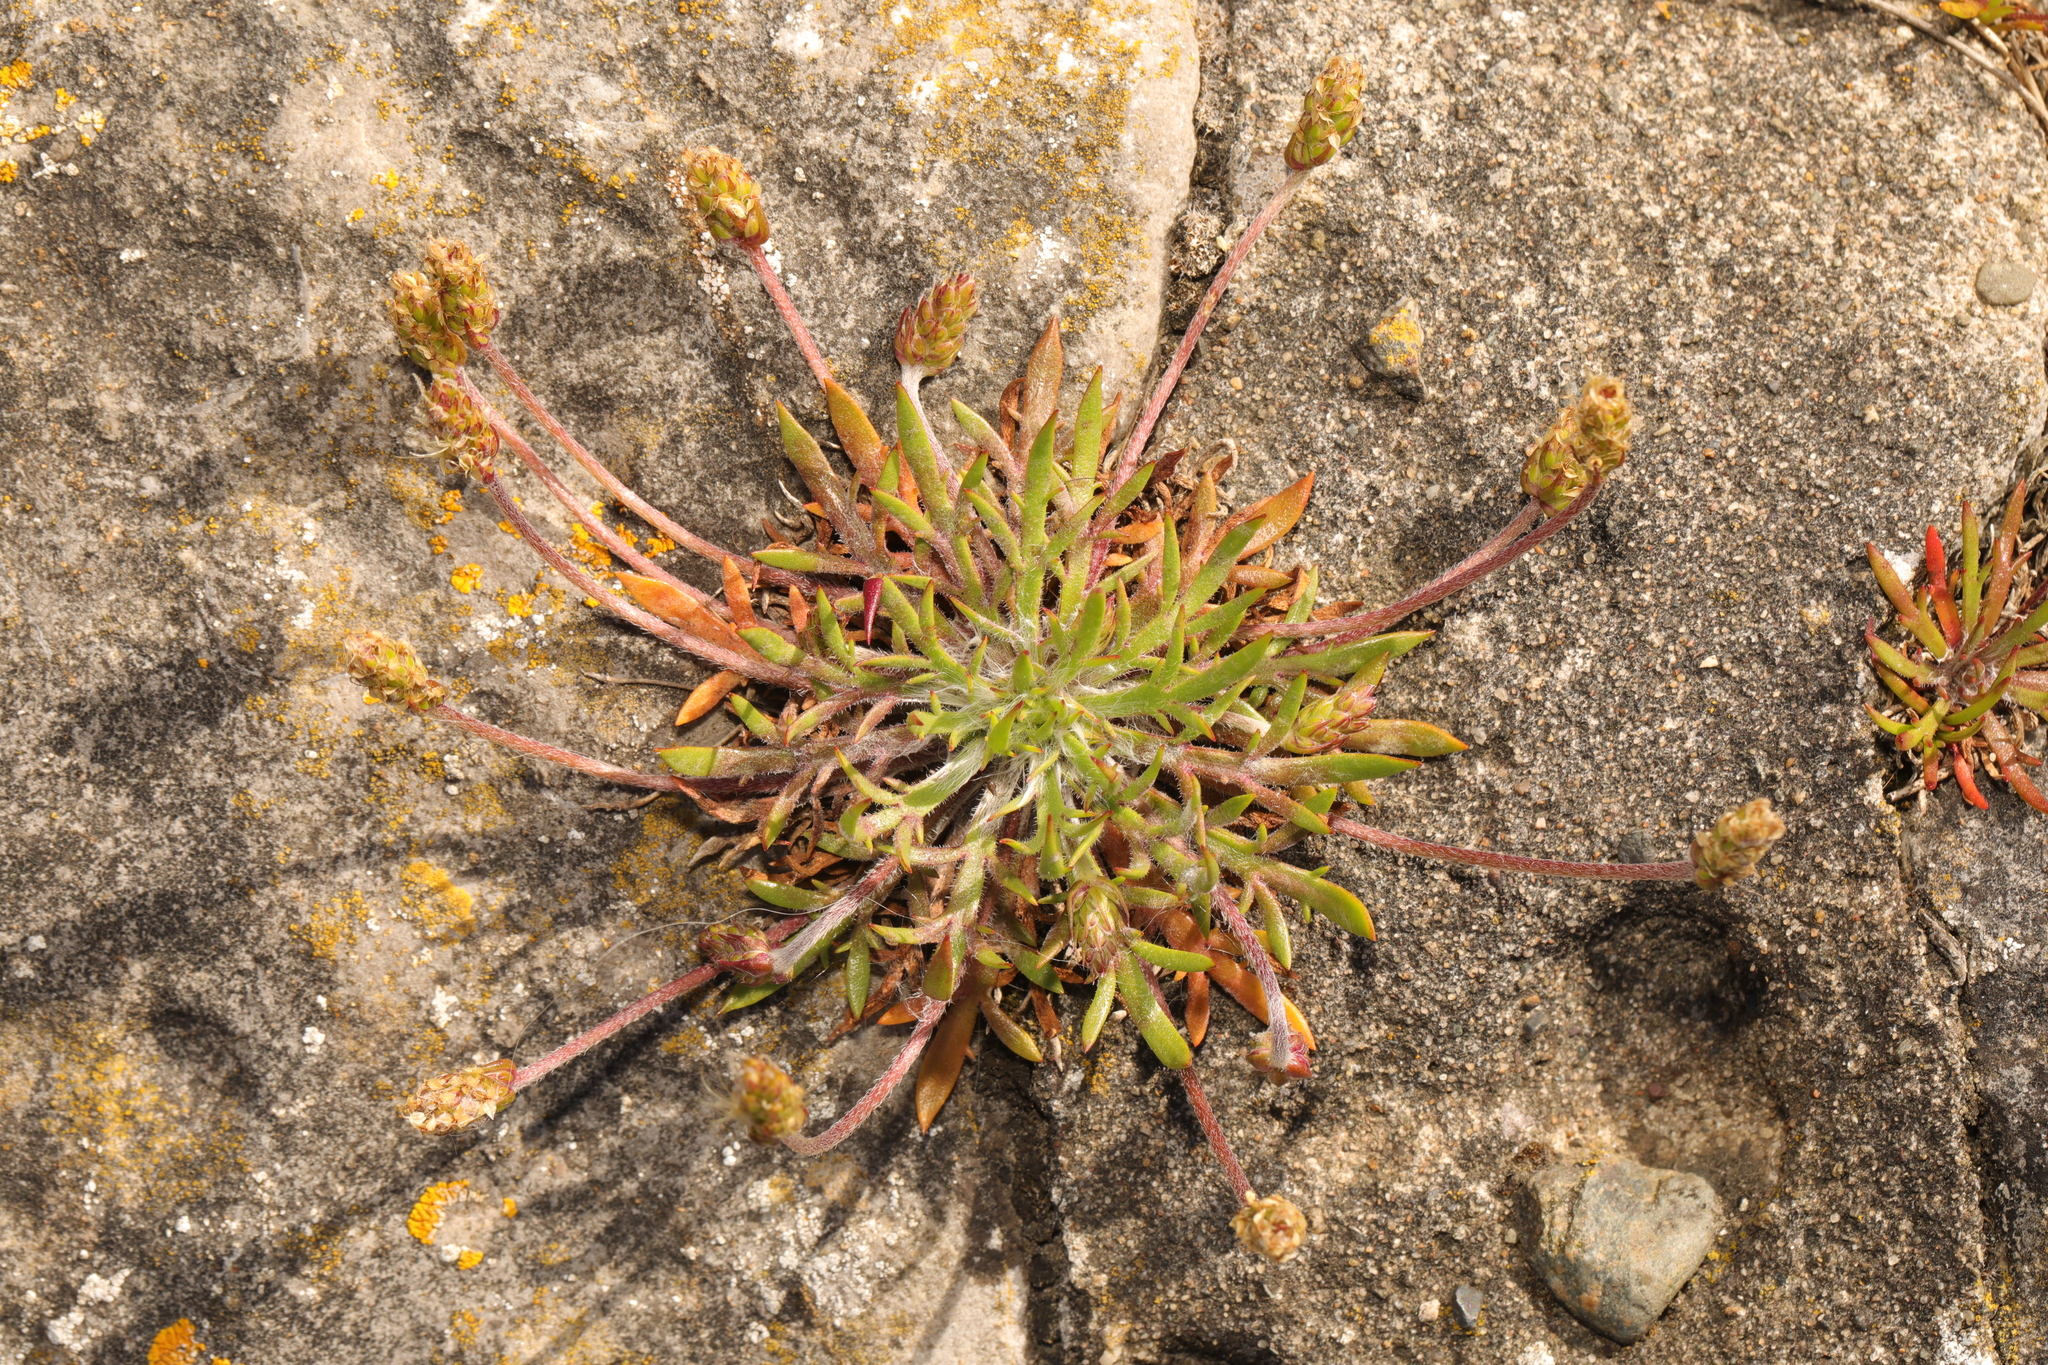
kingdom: Plantae
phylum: Tracheophyta
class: Magnoliopsida
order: Lamiales
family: Plantaginaceae
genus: Plantago
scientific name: Plantago coronopus
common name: Buck's-horn plantain
